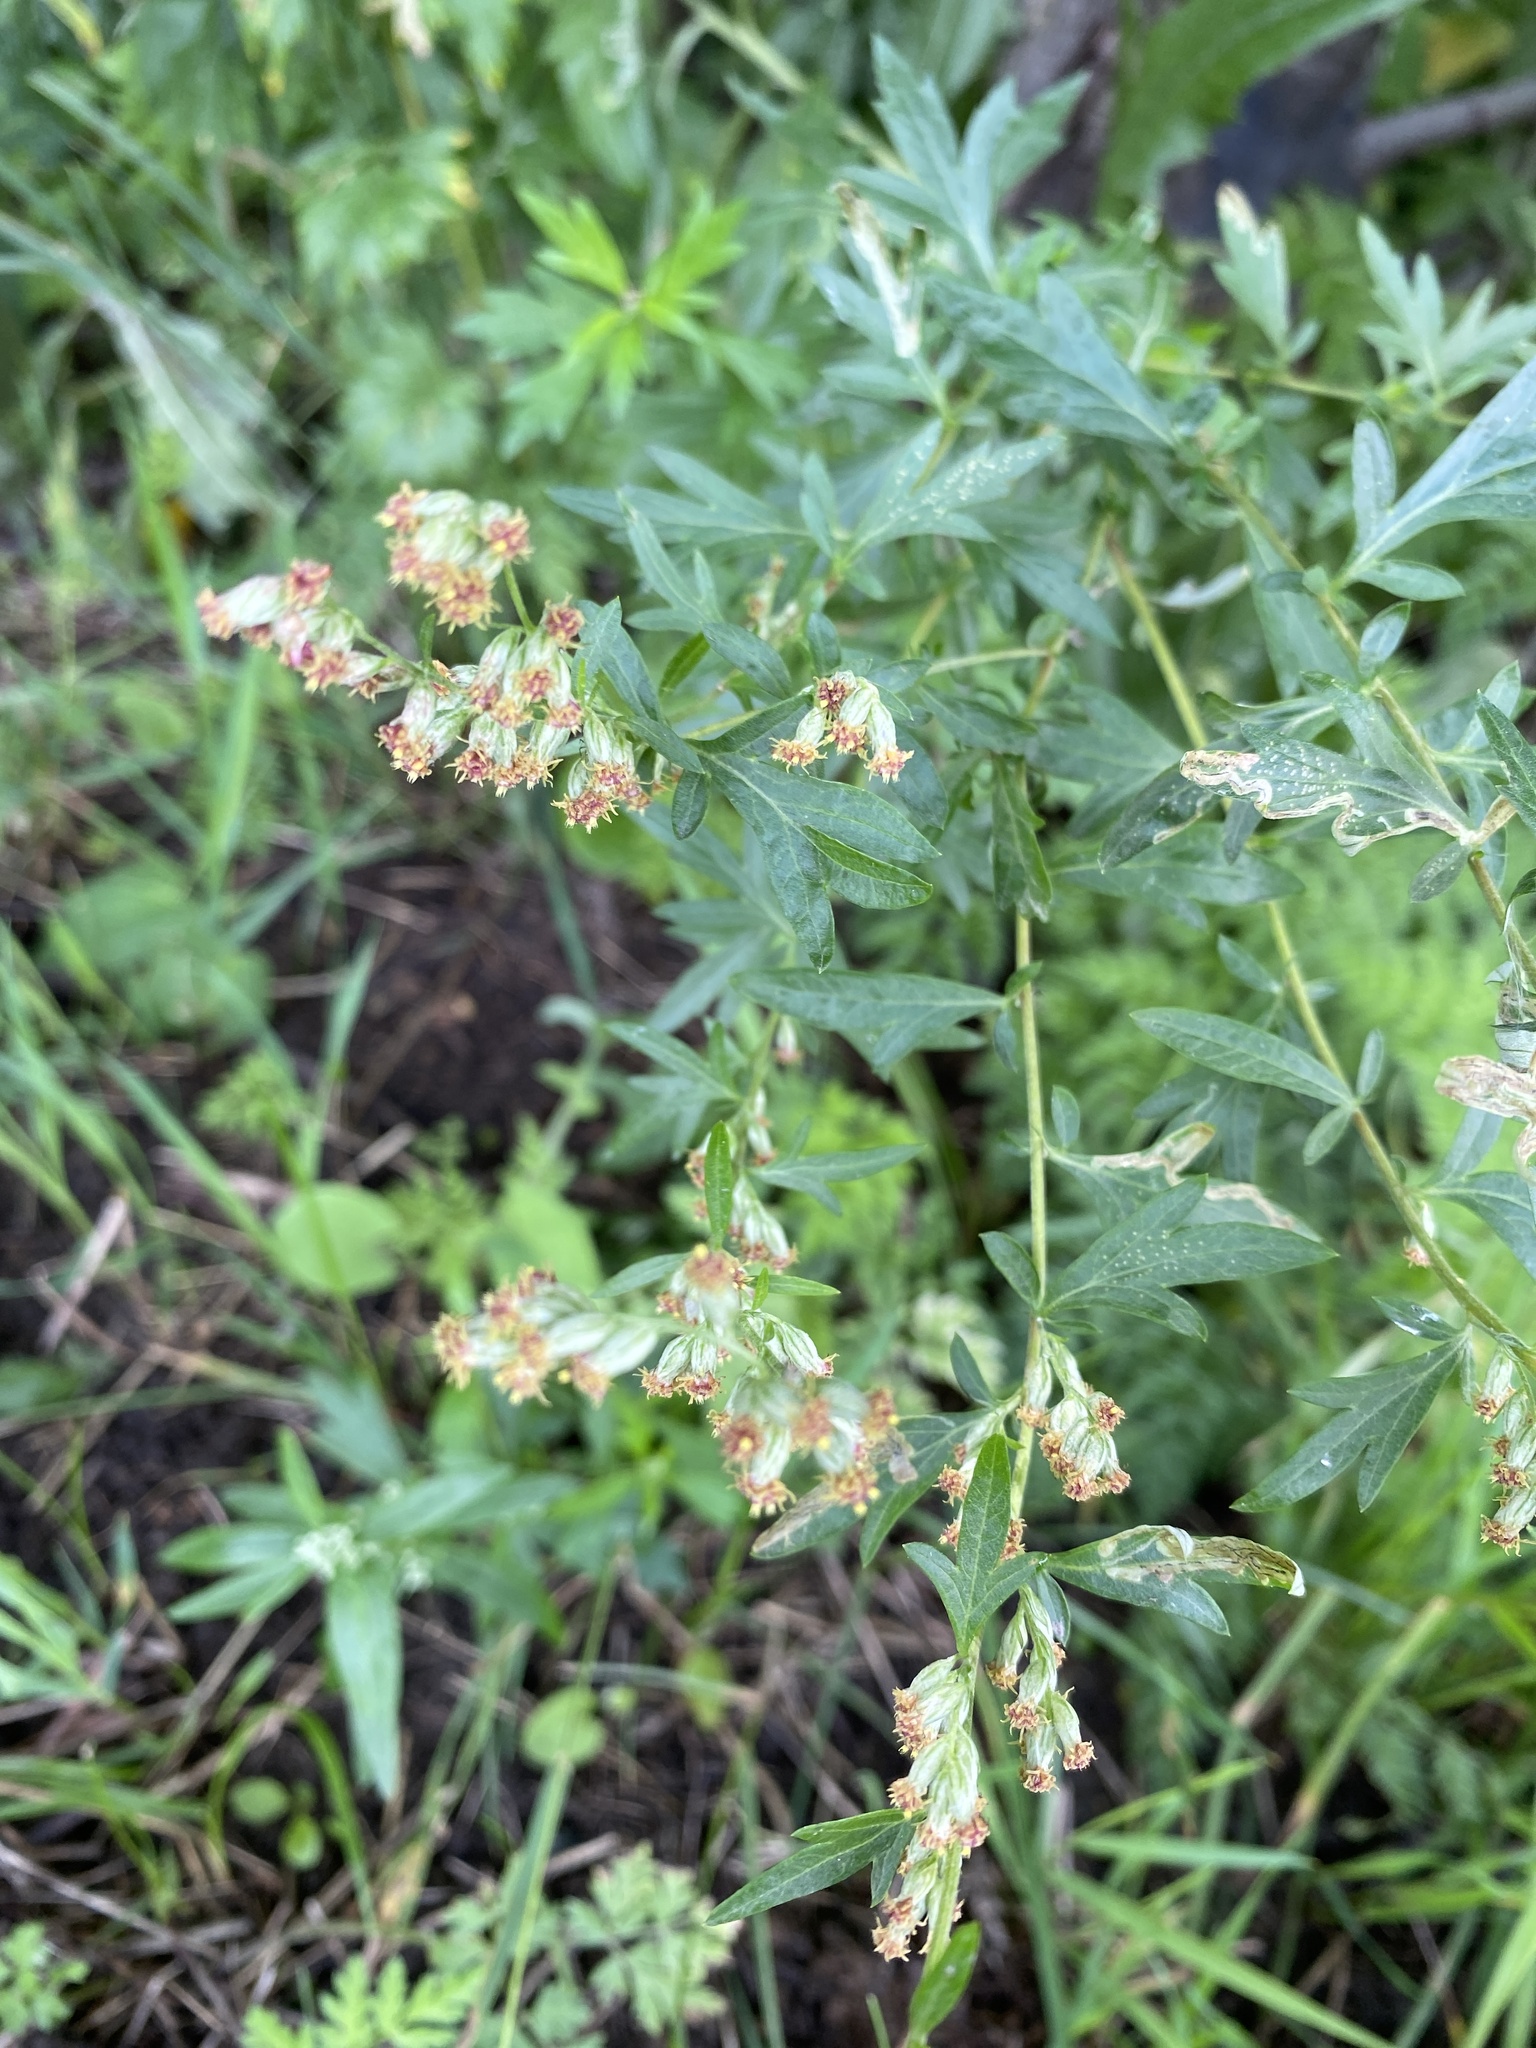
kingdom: Plantae
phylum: Tracheophyta
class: Magnoliopsida
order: Asterales
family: Asteraceae
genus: Artemisia
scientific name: Artemisia vulgaris
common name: Mugwort
